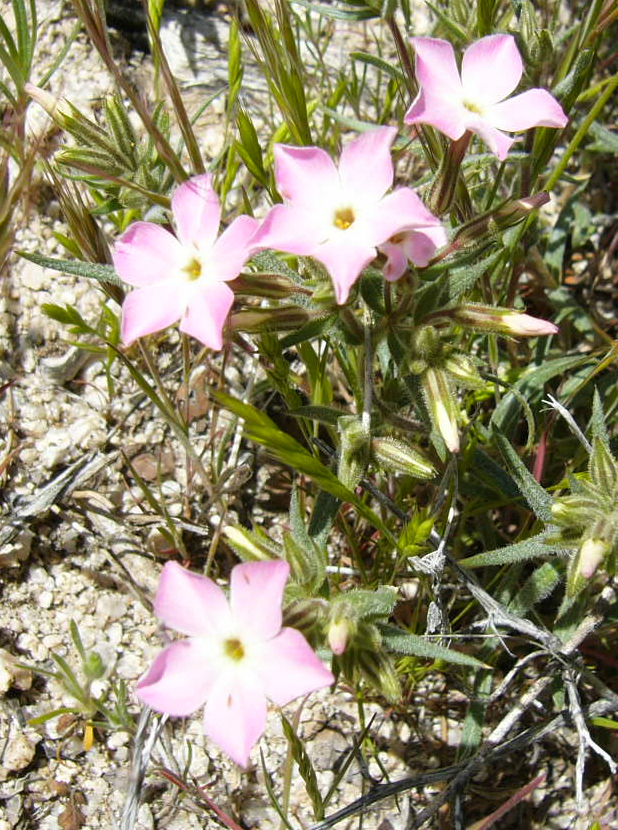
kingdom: Plantae
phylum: Tracheophyta
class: Magnoliopsida
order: Ericales
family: Polemoniaceae
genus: Phlox
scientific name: Phlox longifolia
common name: Longleaf phlox
